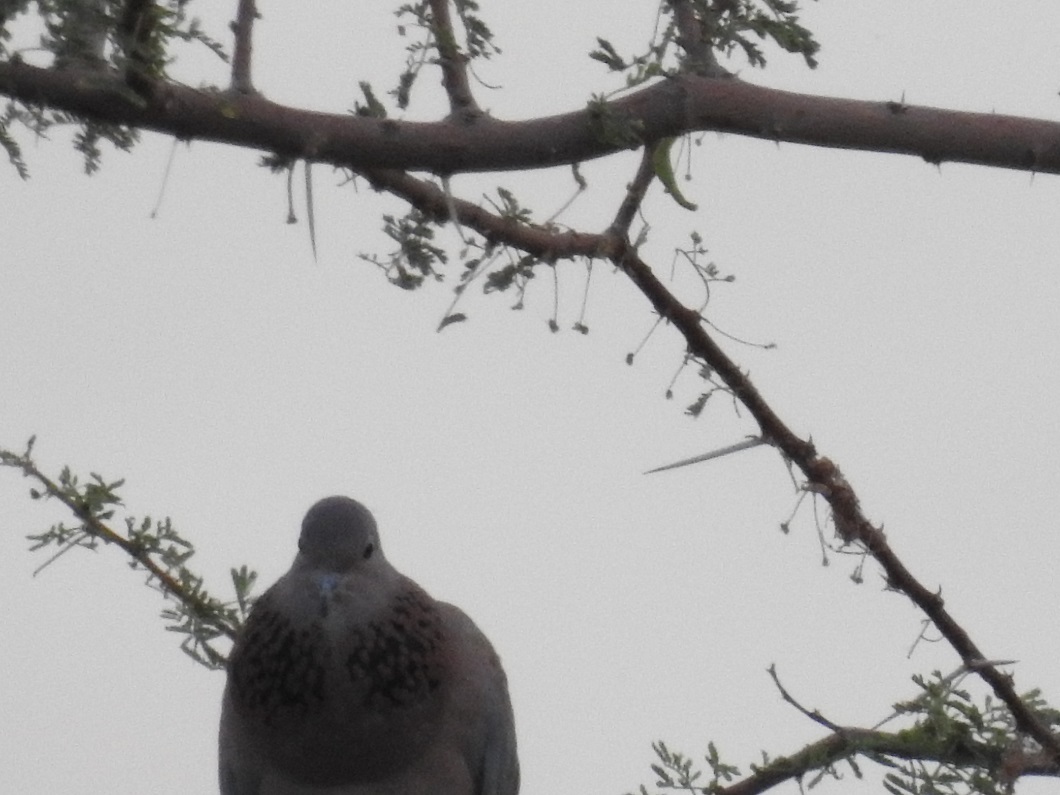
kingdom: Animalia
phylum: Chordata
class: Aves
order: Columbiformes
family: Columbidae
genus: Spilopelia
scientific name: Spilopelia senegalensis
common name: Laughing dove
